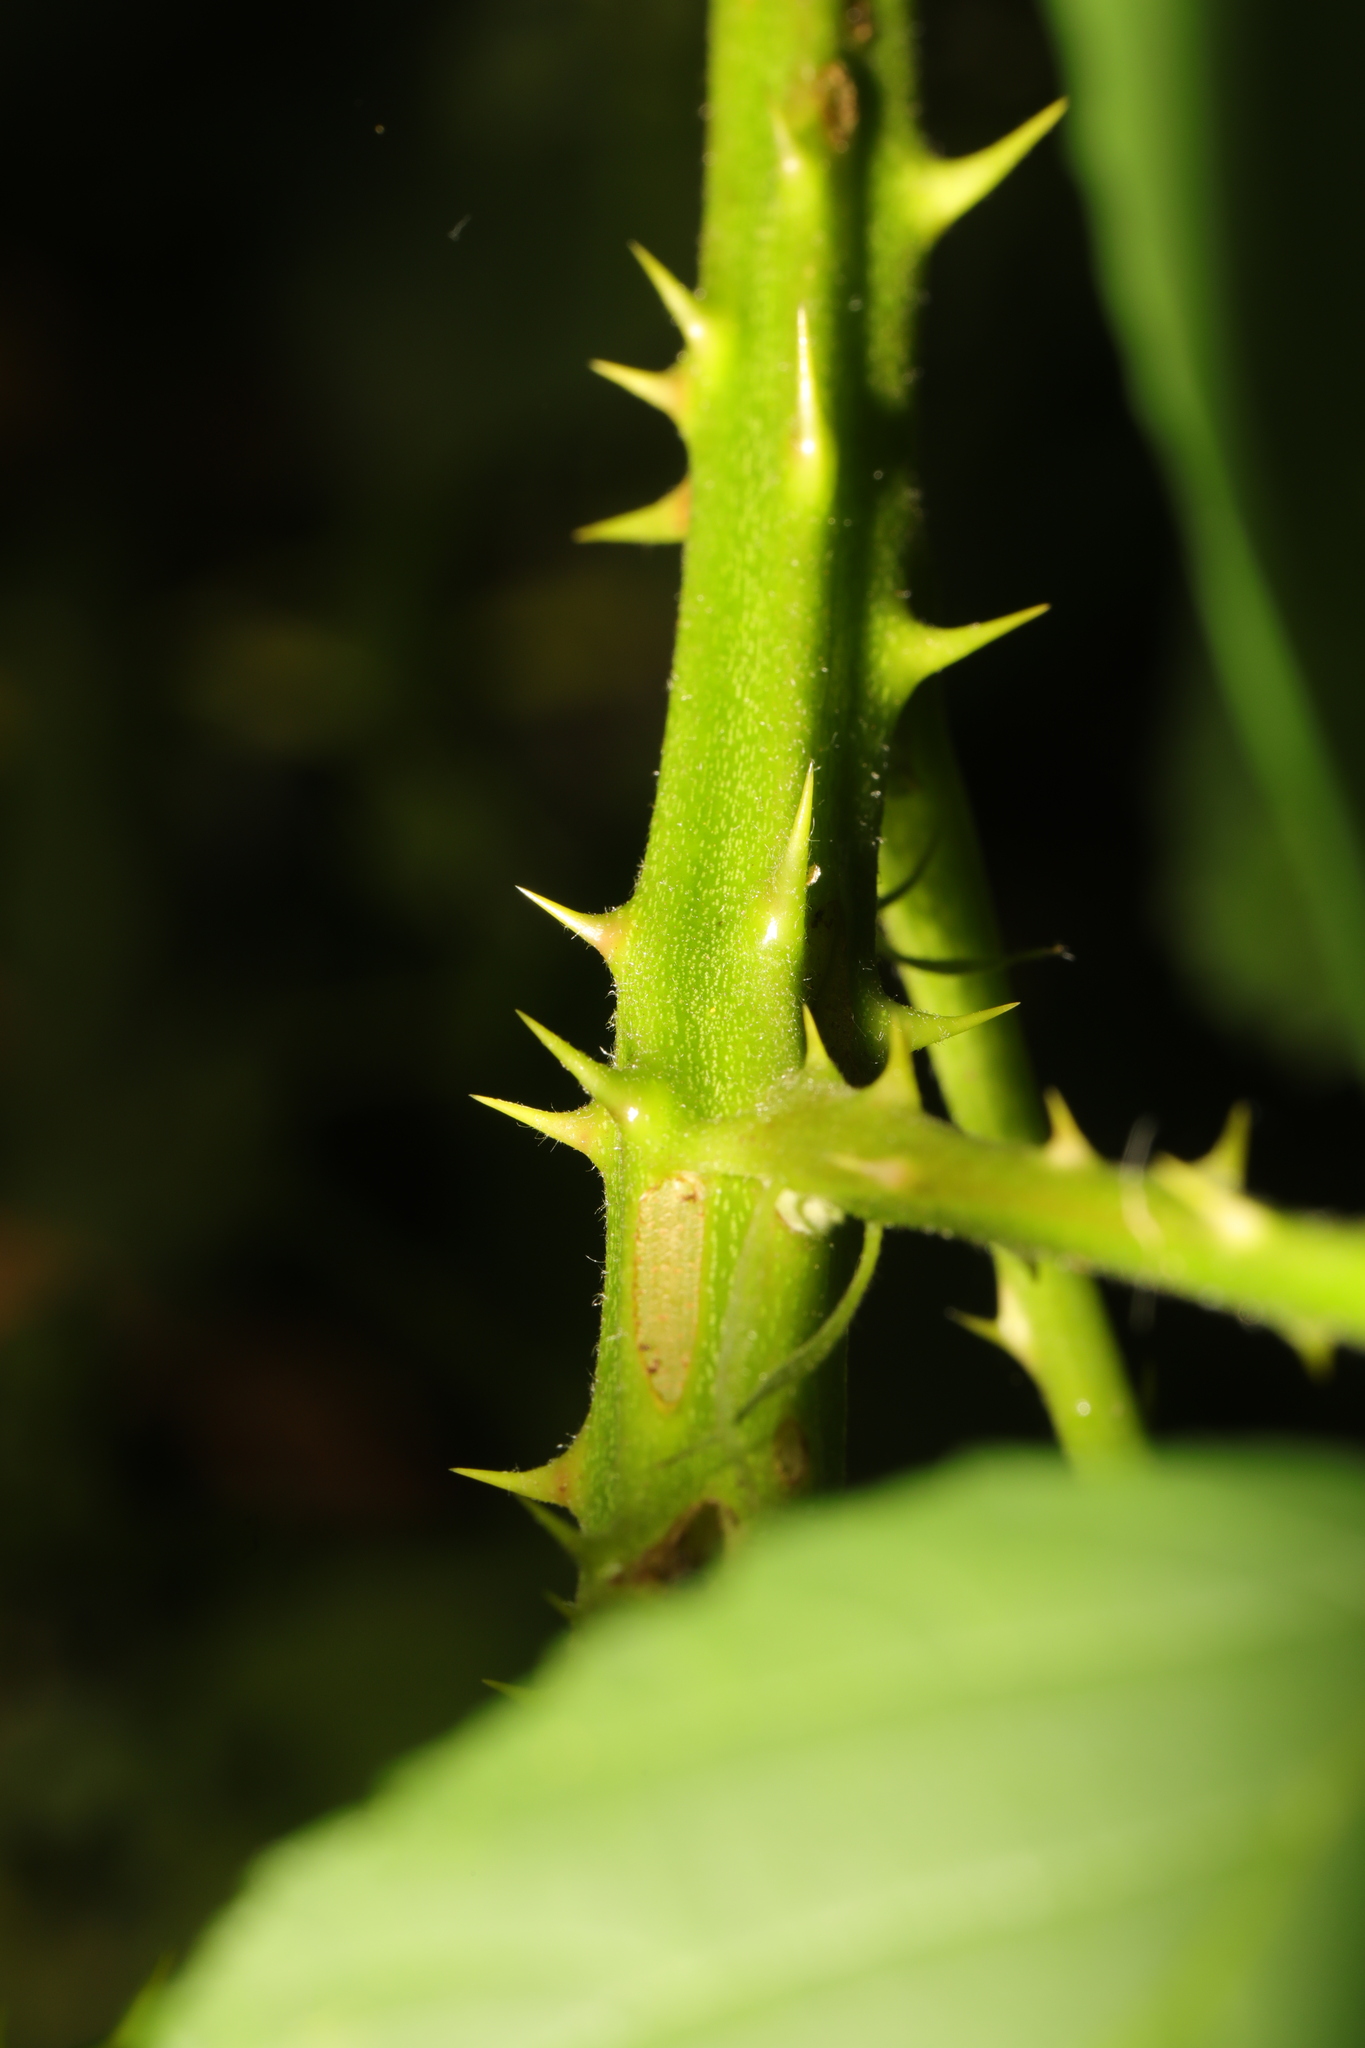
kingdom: Plantae
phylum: Tracheophyta
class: Magnoliopsida
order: Rosales
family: Rosaceae
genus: Rubus
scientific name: Rubus bifrons
